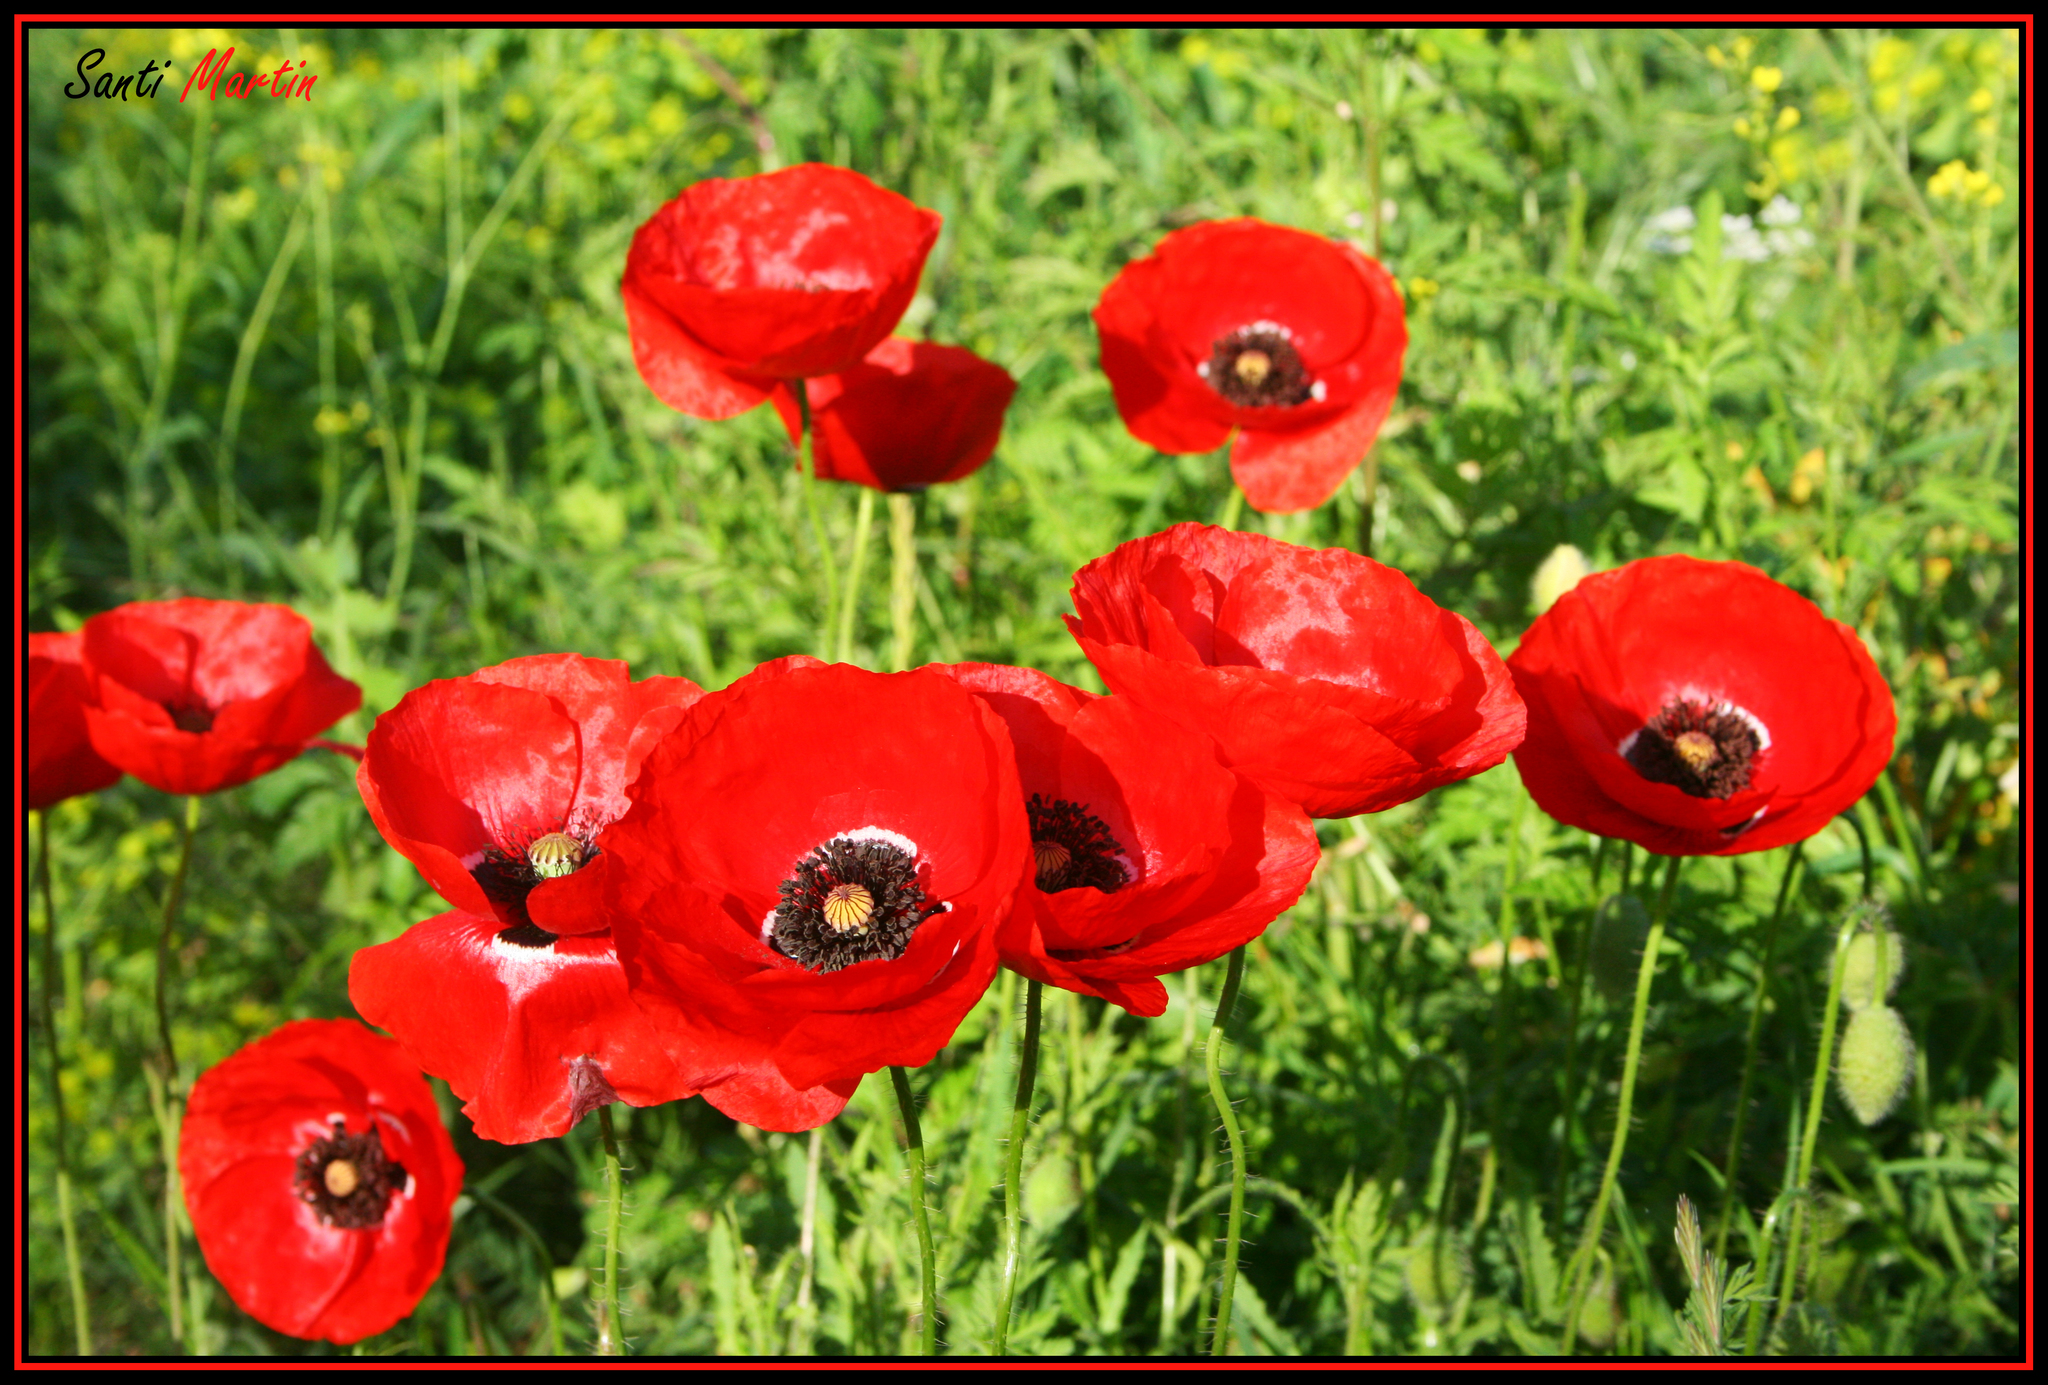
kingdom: Plantae
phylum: Tracheophyta
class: Magnoliopsida
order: Ranunculales
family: Papaveraceae
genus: Papaver
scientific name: Papaver rhoeas
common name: Corn poppy
